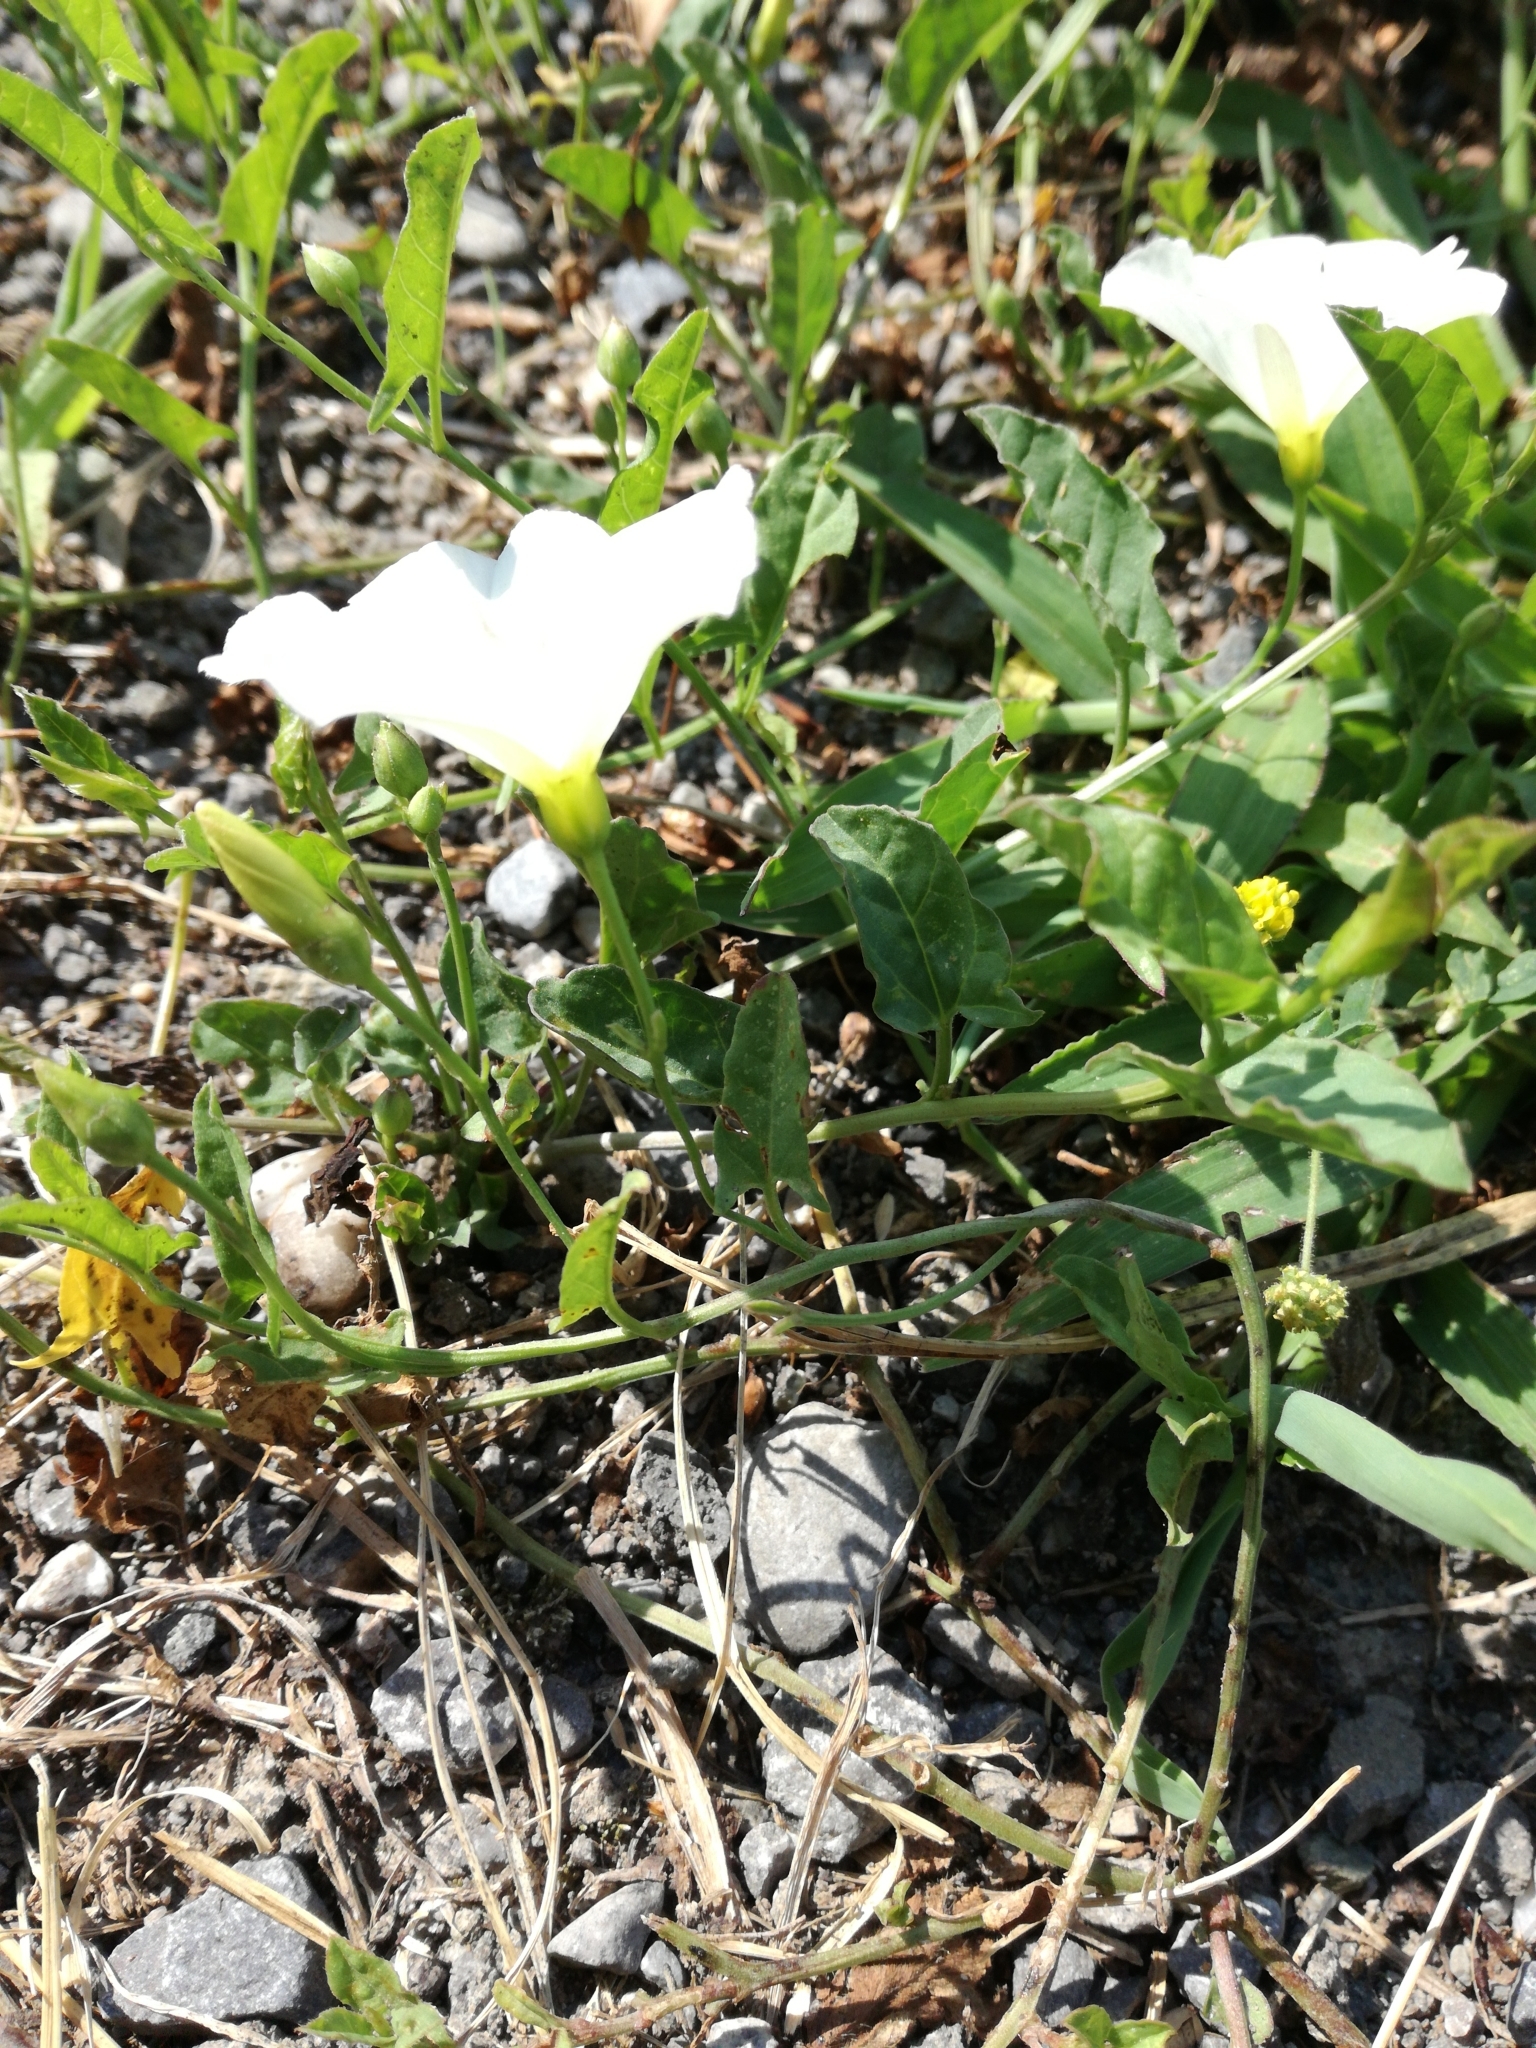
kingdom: Plantae
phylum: Tracheophyta
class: Magnoliopsida
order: Solanales
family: Convolvulaceae
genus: Convolvulus
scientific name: Convolvulus arvensis
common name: Field bindweed
